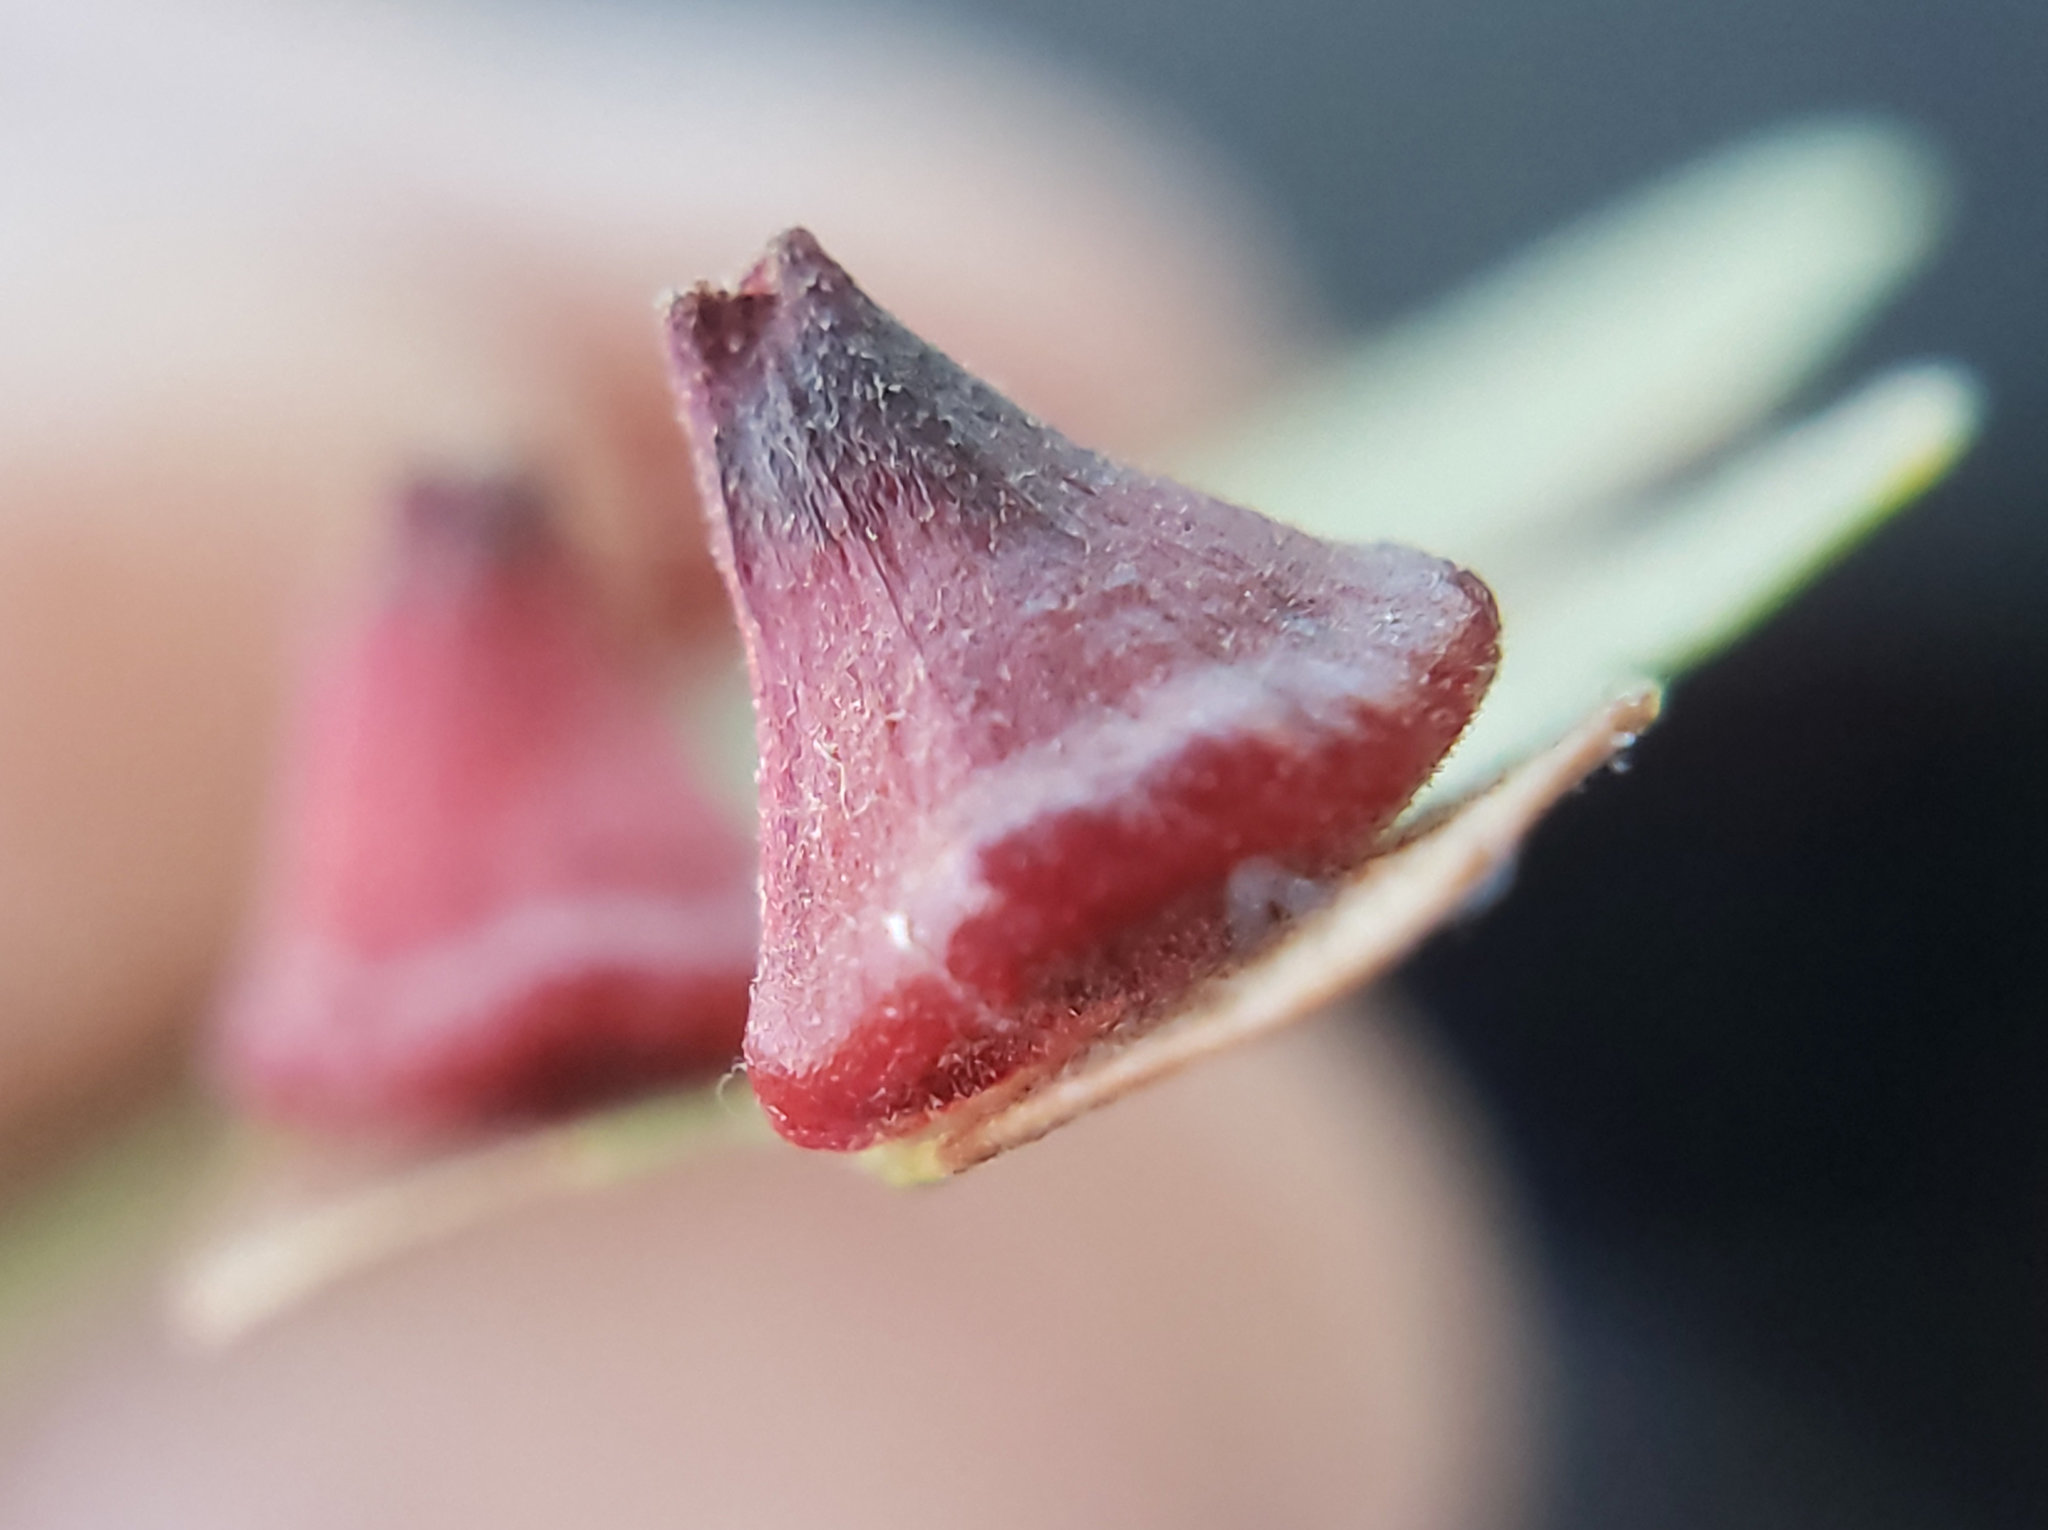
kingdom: Animalia
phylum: Arthropoda
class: Insecta
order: Hymenoptera
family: Cynipidae
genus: Andricus
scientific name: Andricus
